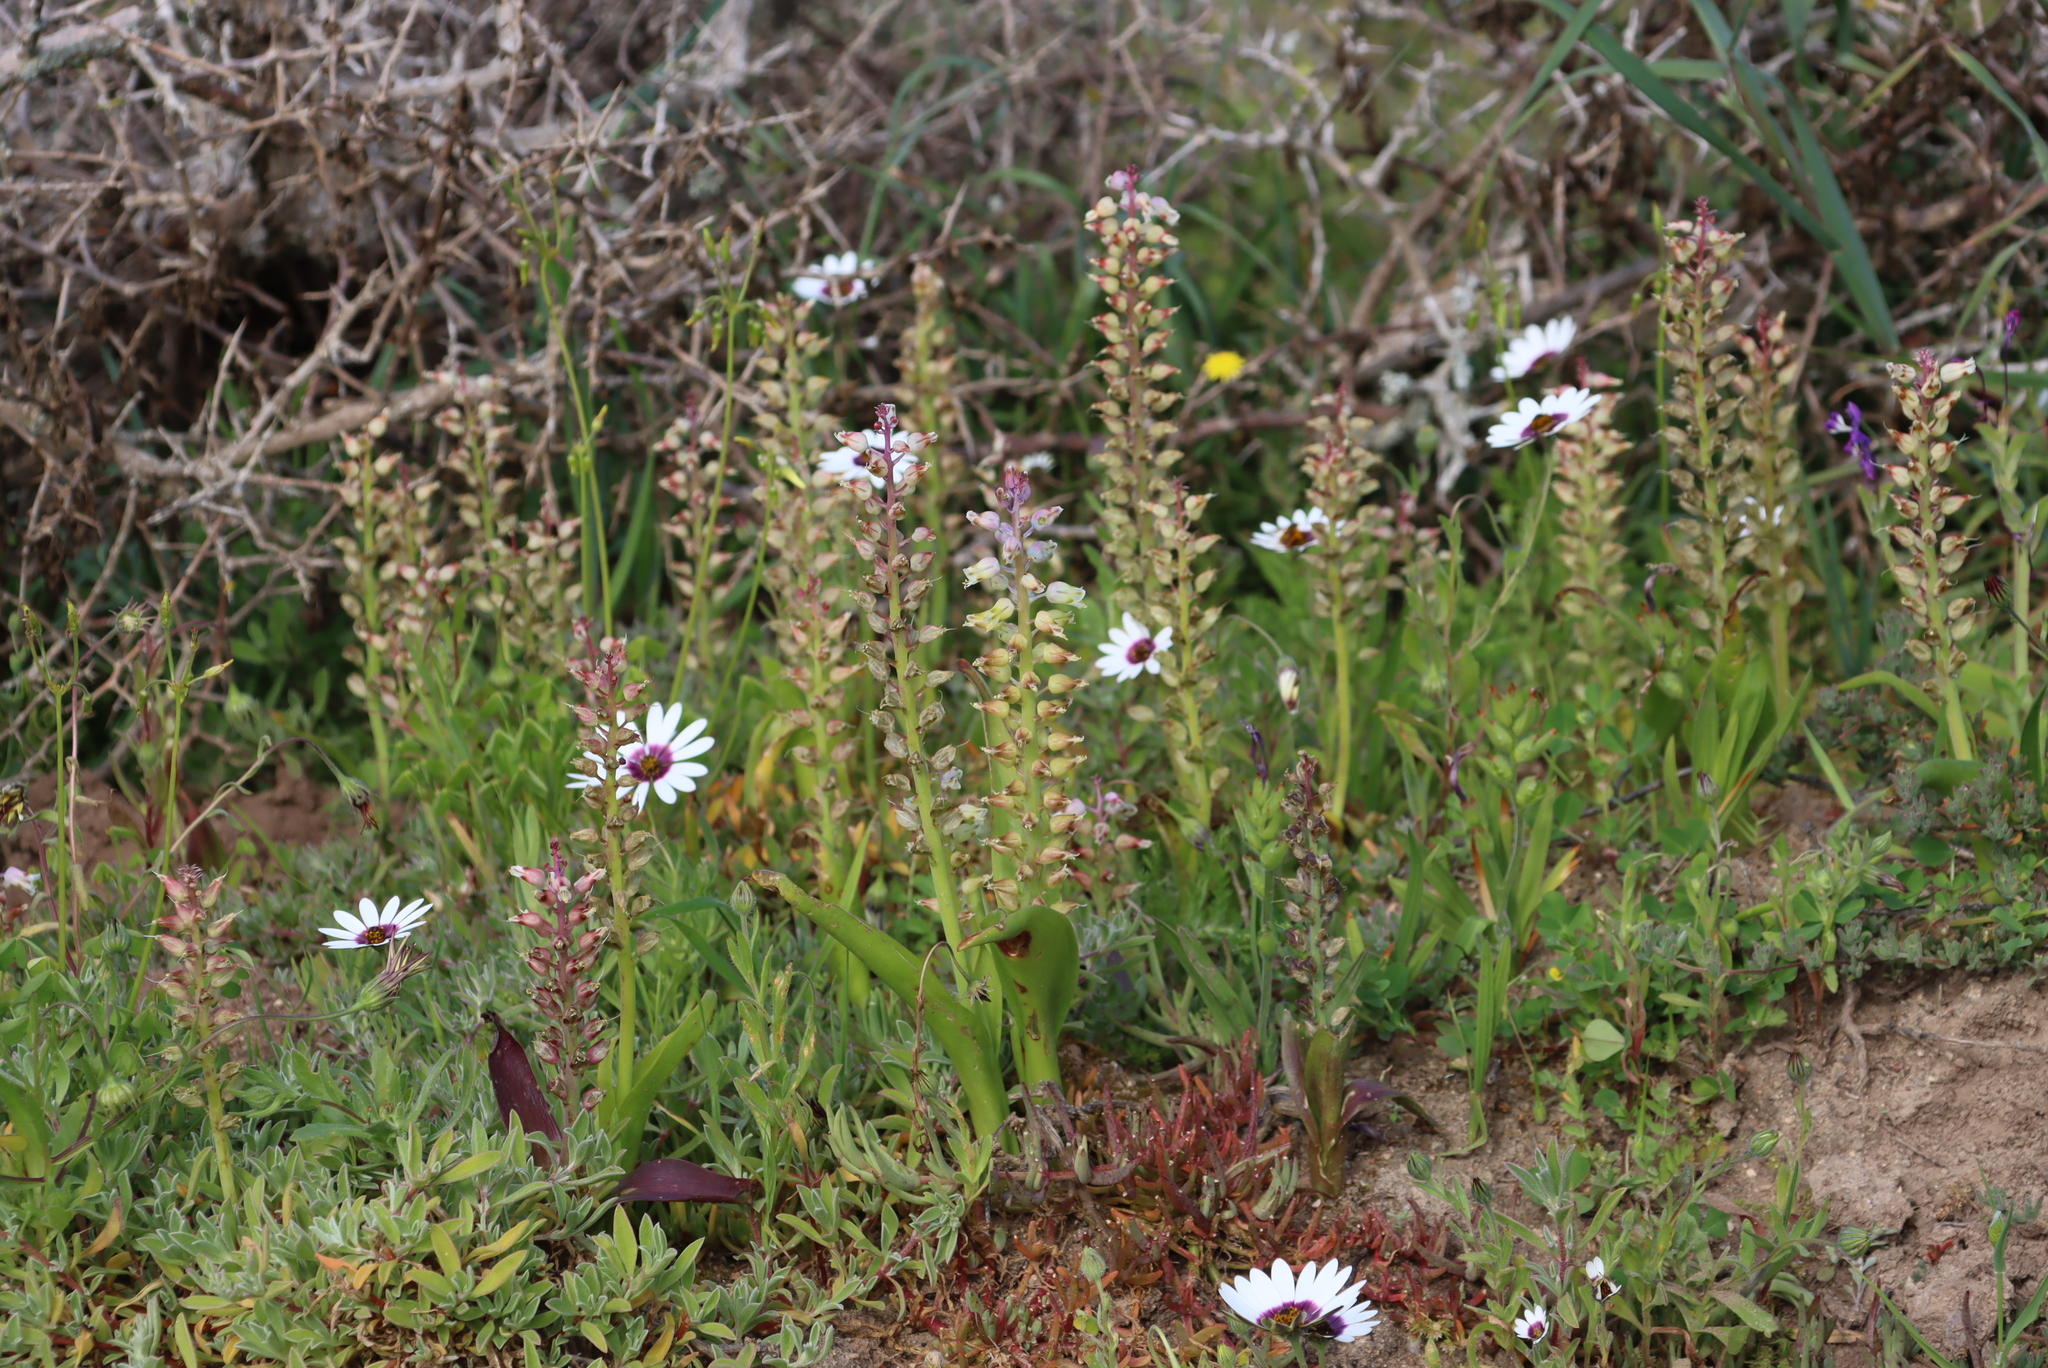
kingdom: Plantae
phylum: Tracheophyta
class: Liliopsida
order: Asparagales
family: Asparagaceae
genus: Lachenalia
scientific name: Lachenalia pallida
